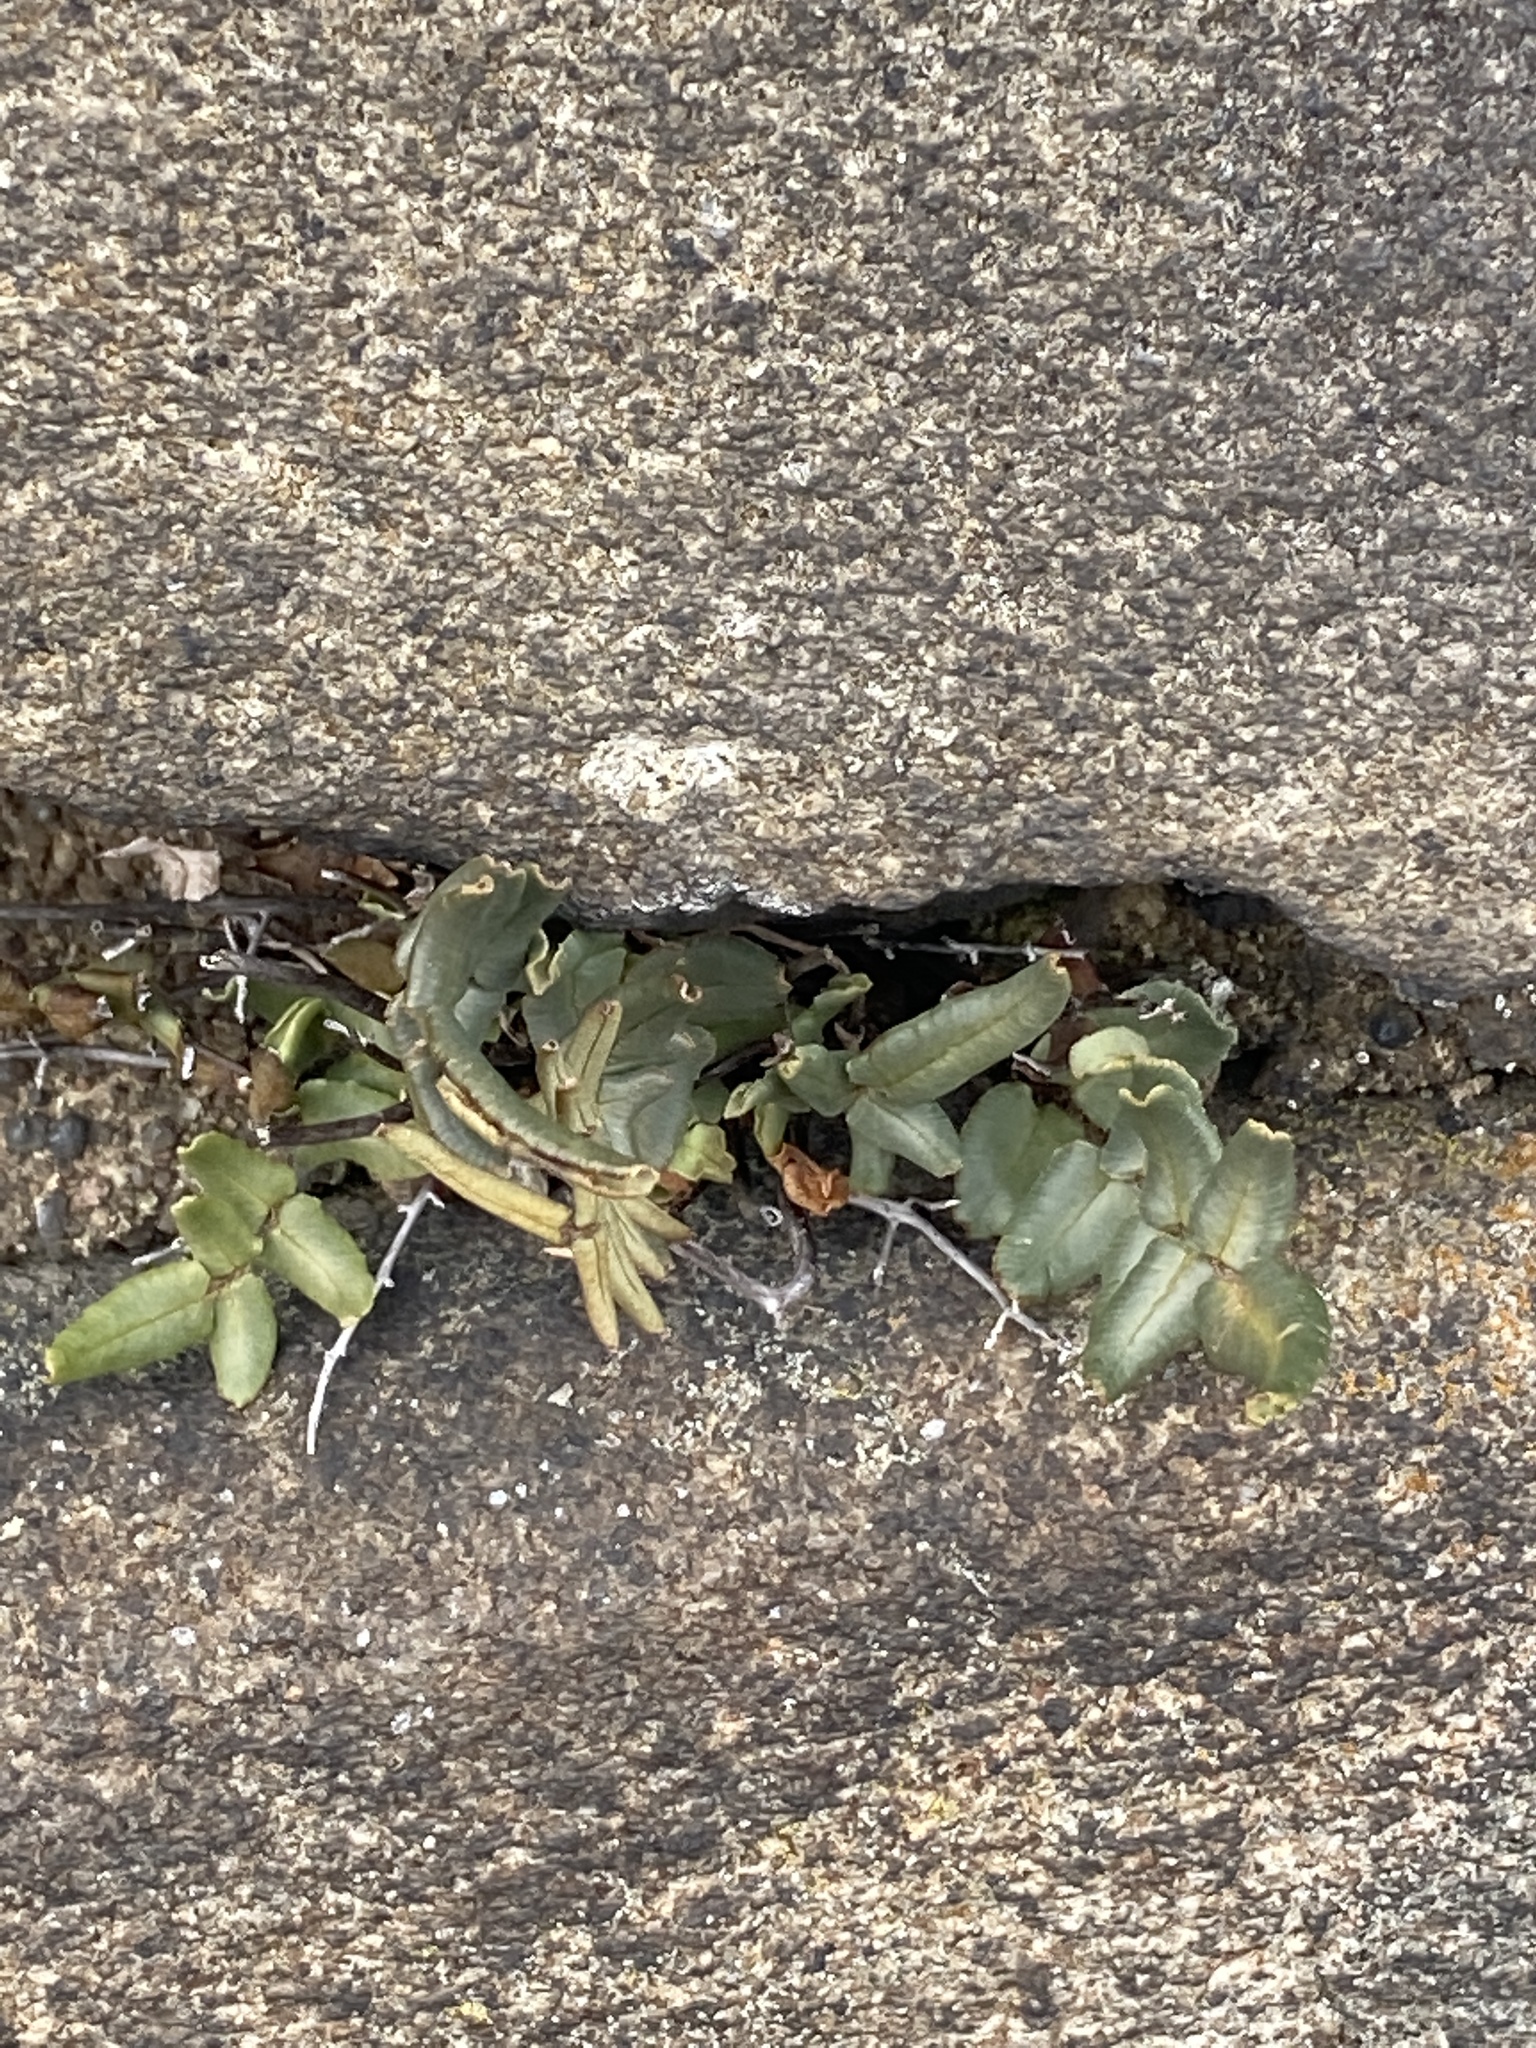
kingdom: Plantae
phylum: Tracheophyta
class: Polypodiopsida
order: Polypodiales
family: Pteridaceae
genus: Pellaea
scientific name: Pellaea atropurpurea
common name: Hairy cliffbrake
